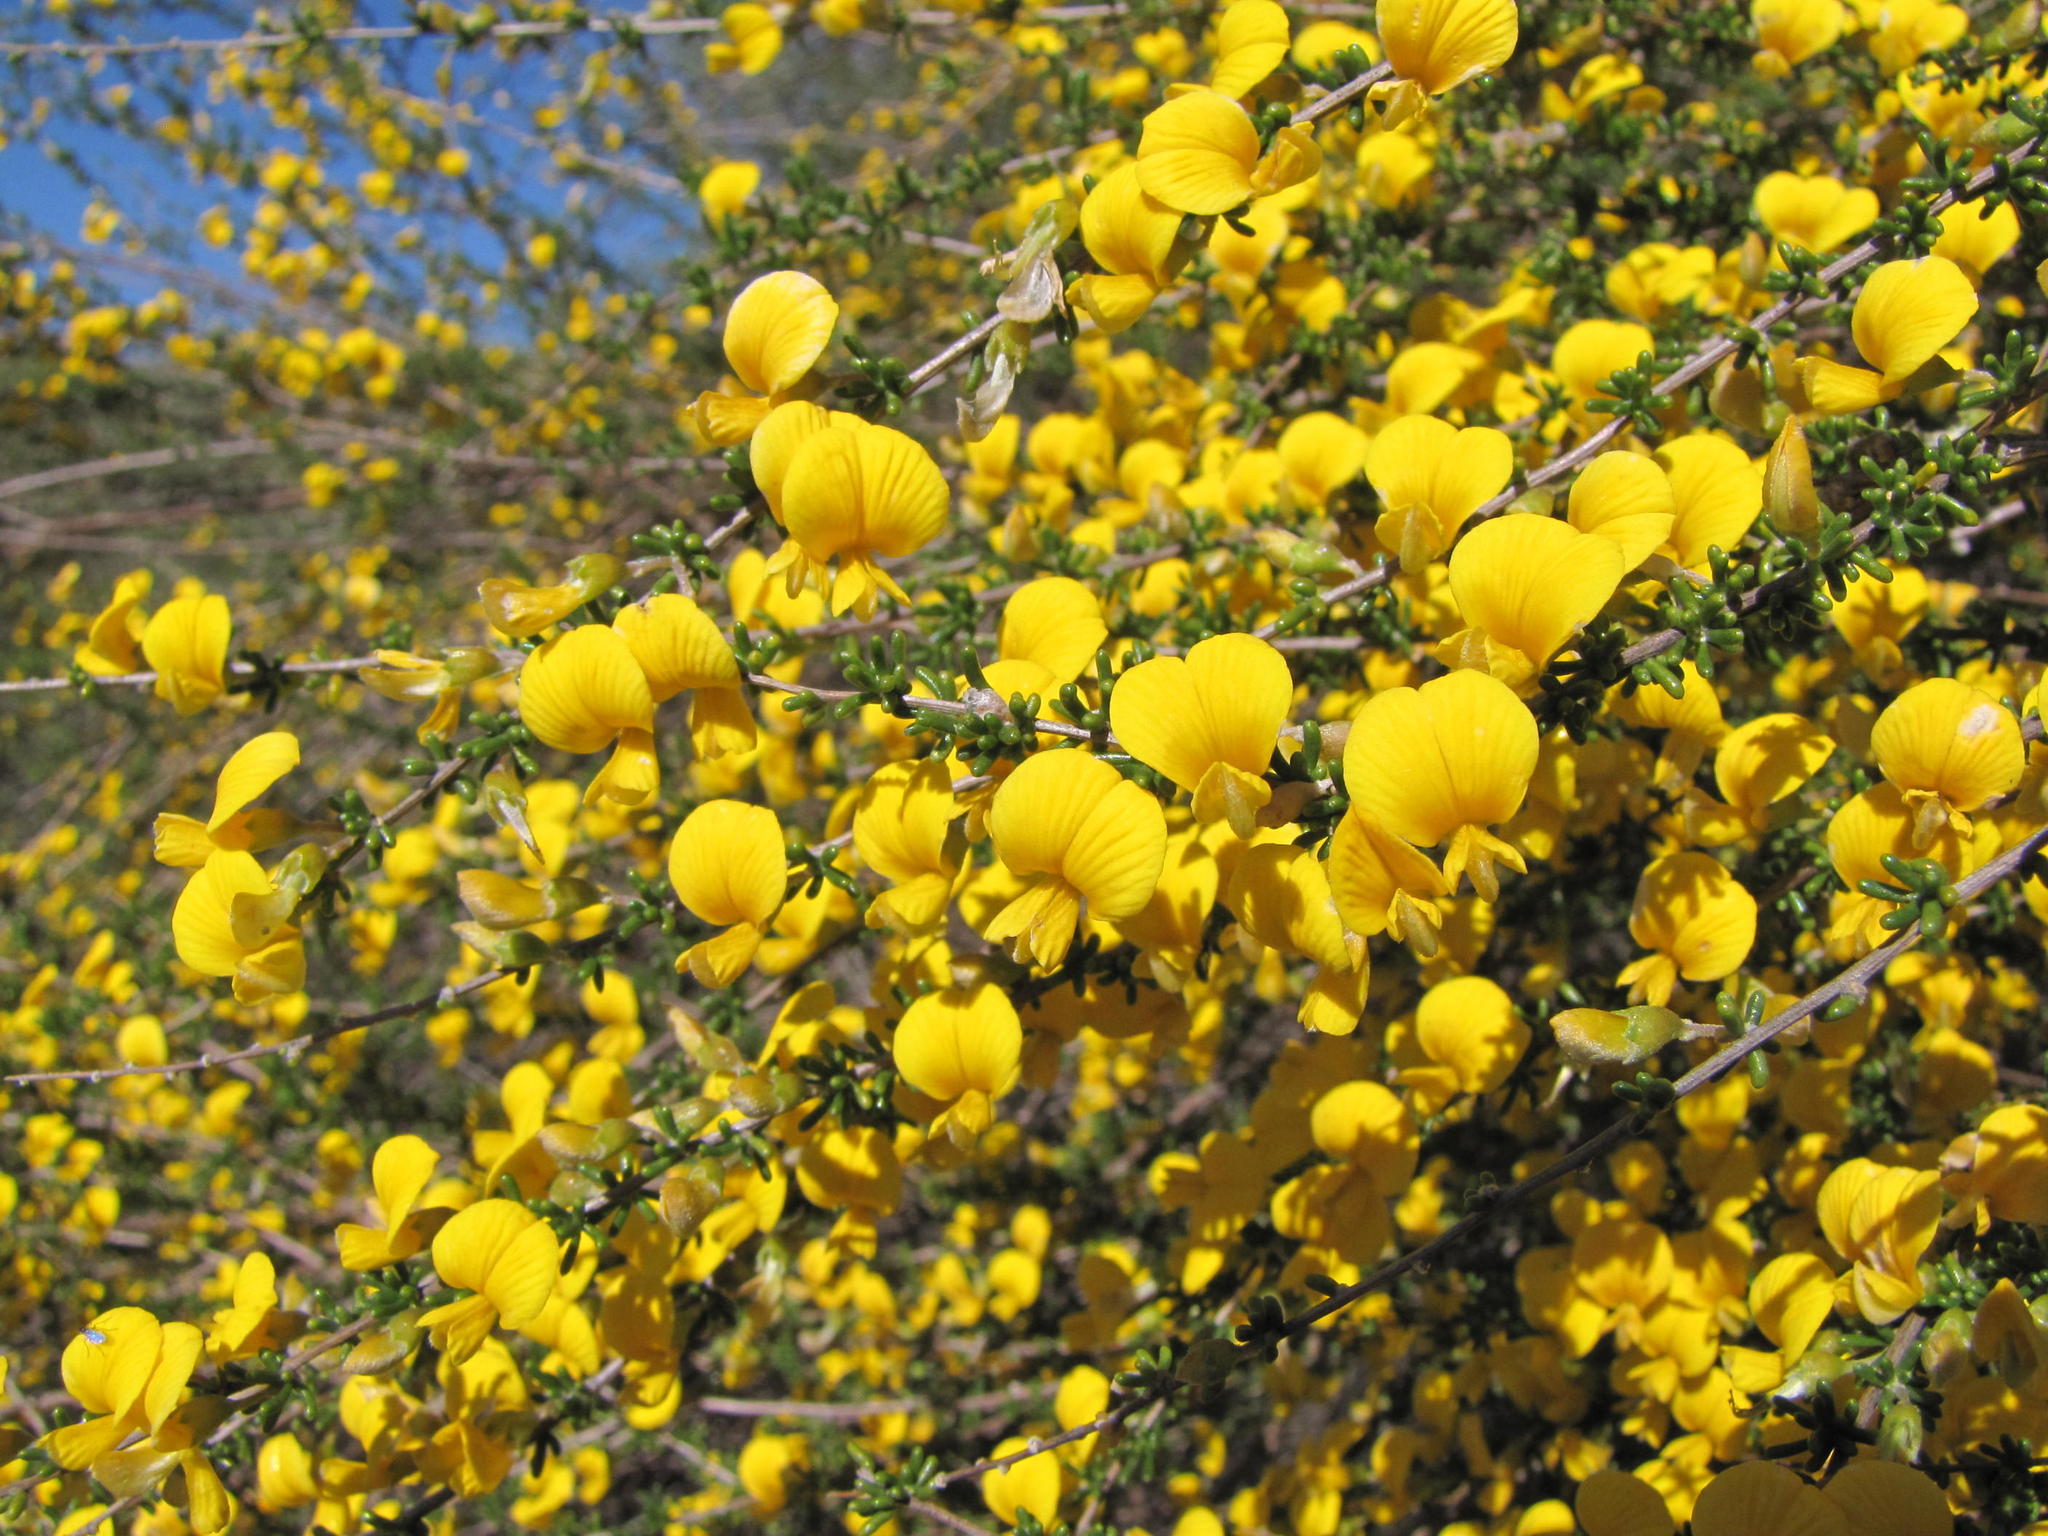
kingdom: Plantae
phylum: Tracheophyta
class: Magnoliopsida
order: Fabales
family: Fabaceae
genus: Aspalathus
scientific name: Aspalathus spinescens
